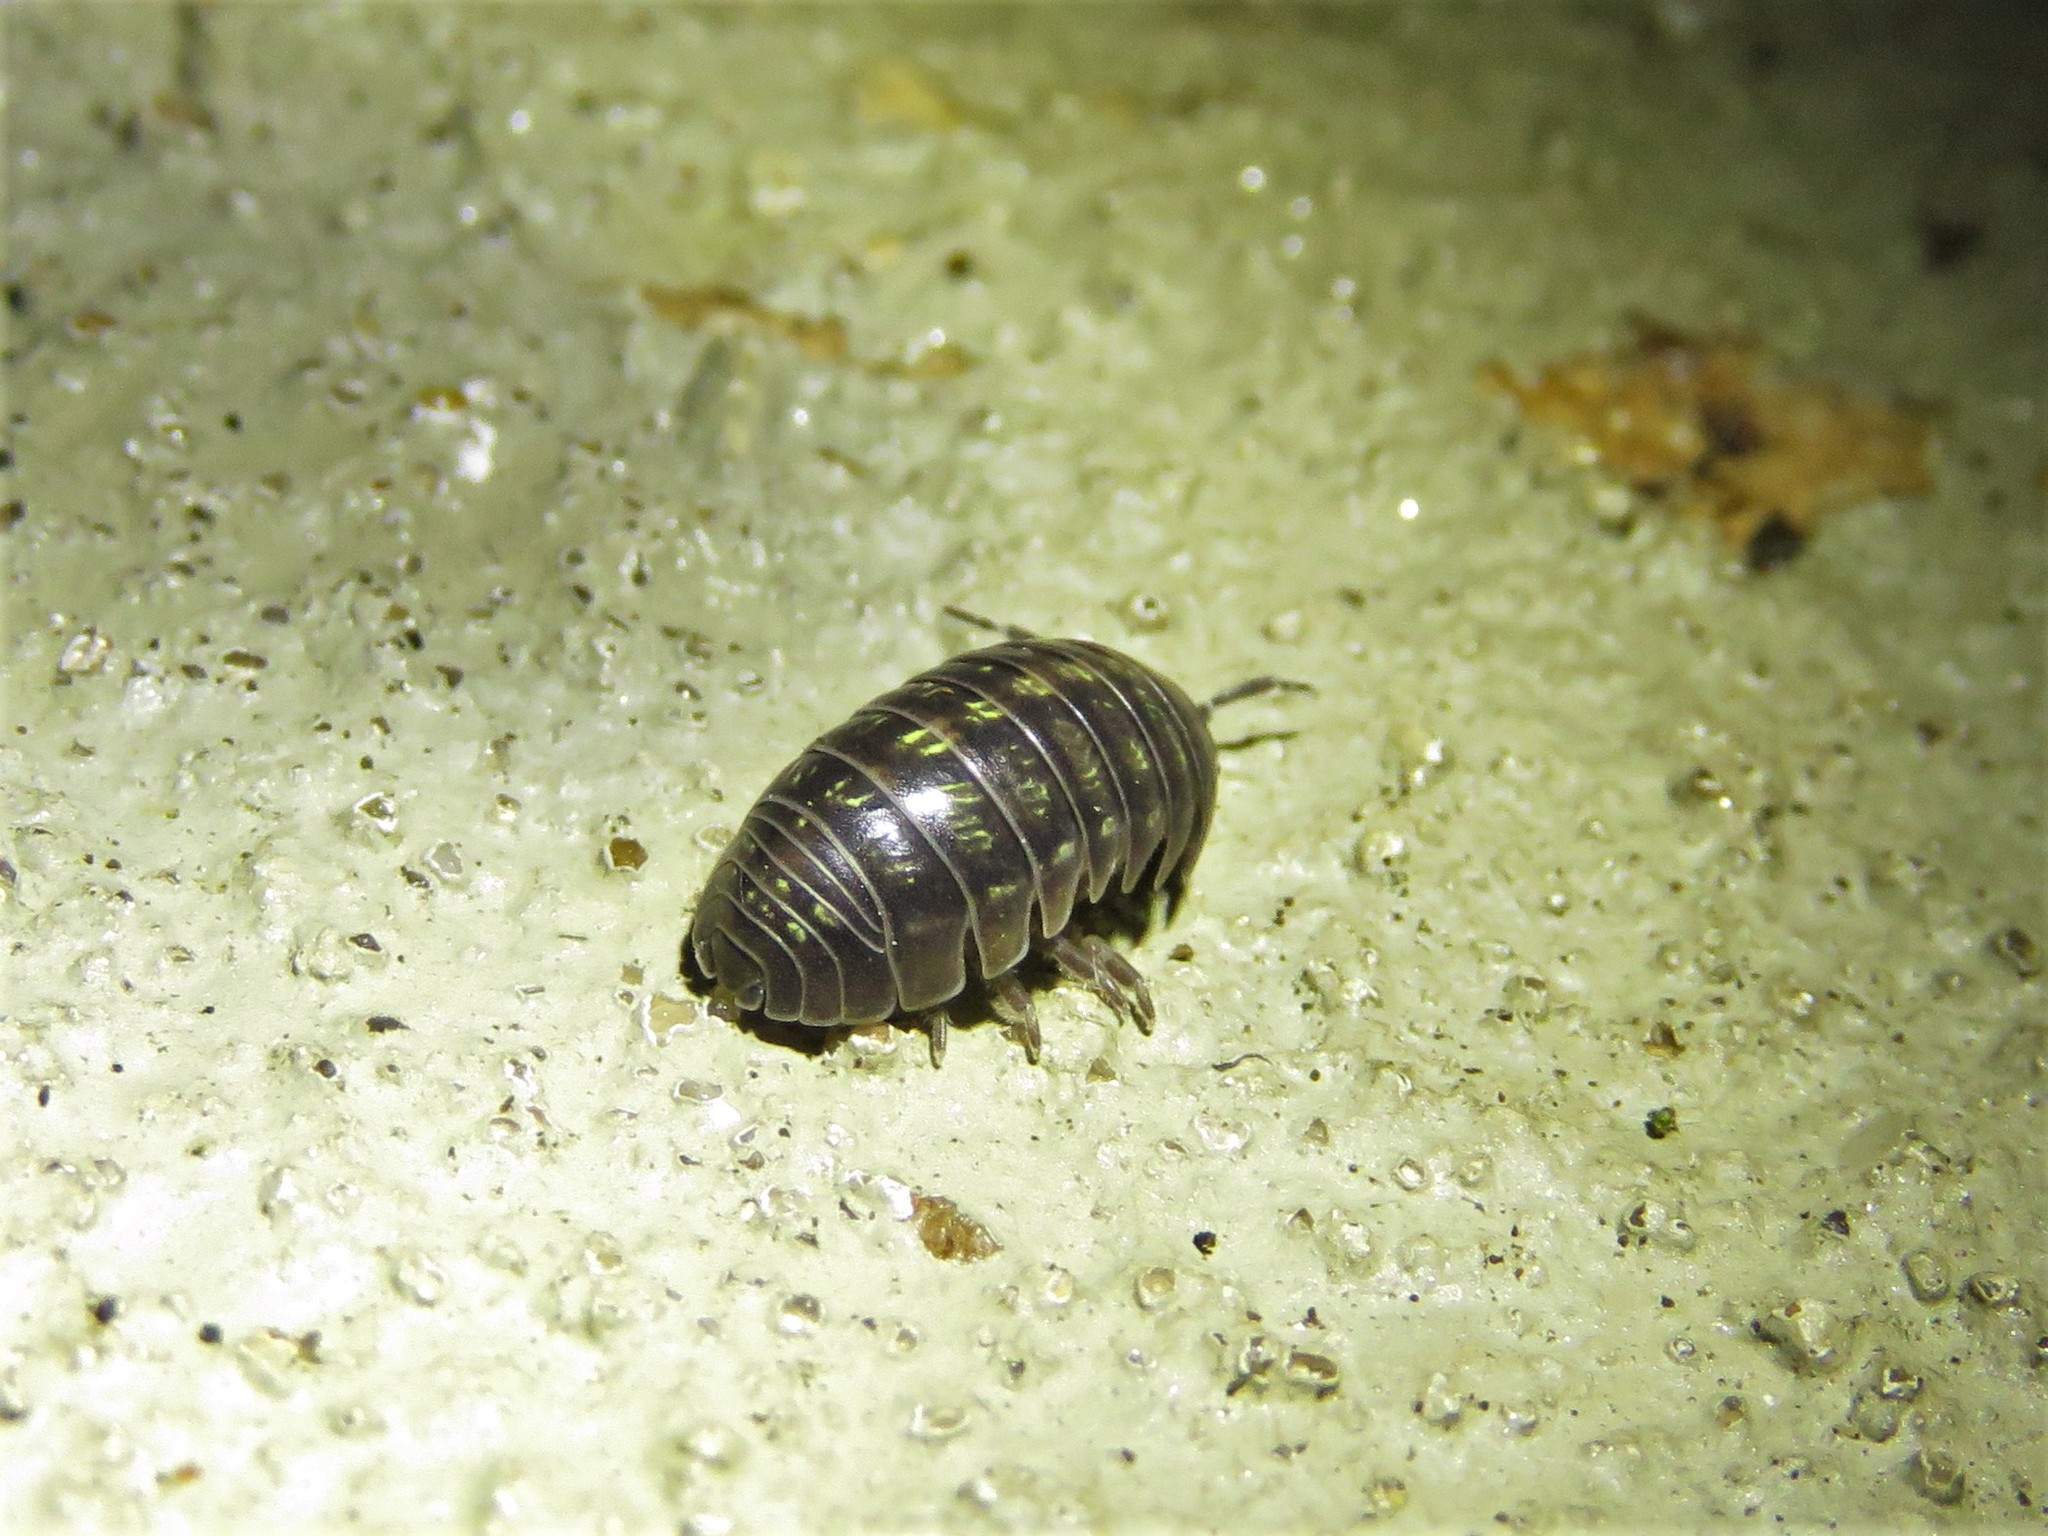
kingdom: Animalia
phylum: Arthropoda
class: Malacostraca
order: Isopoda
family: Armadillidiidae
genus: Armadillidium
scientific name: Armadillidium vulgare
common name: Common pill woodlouse
